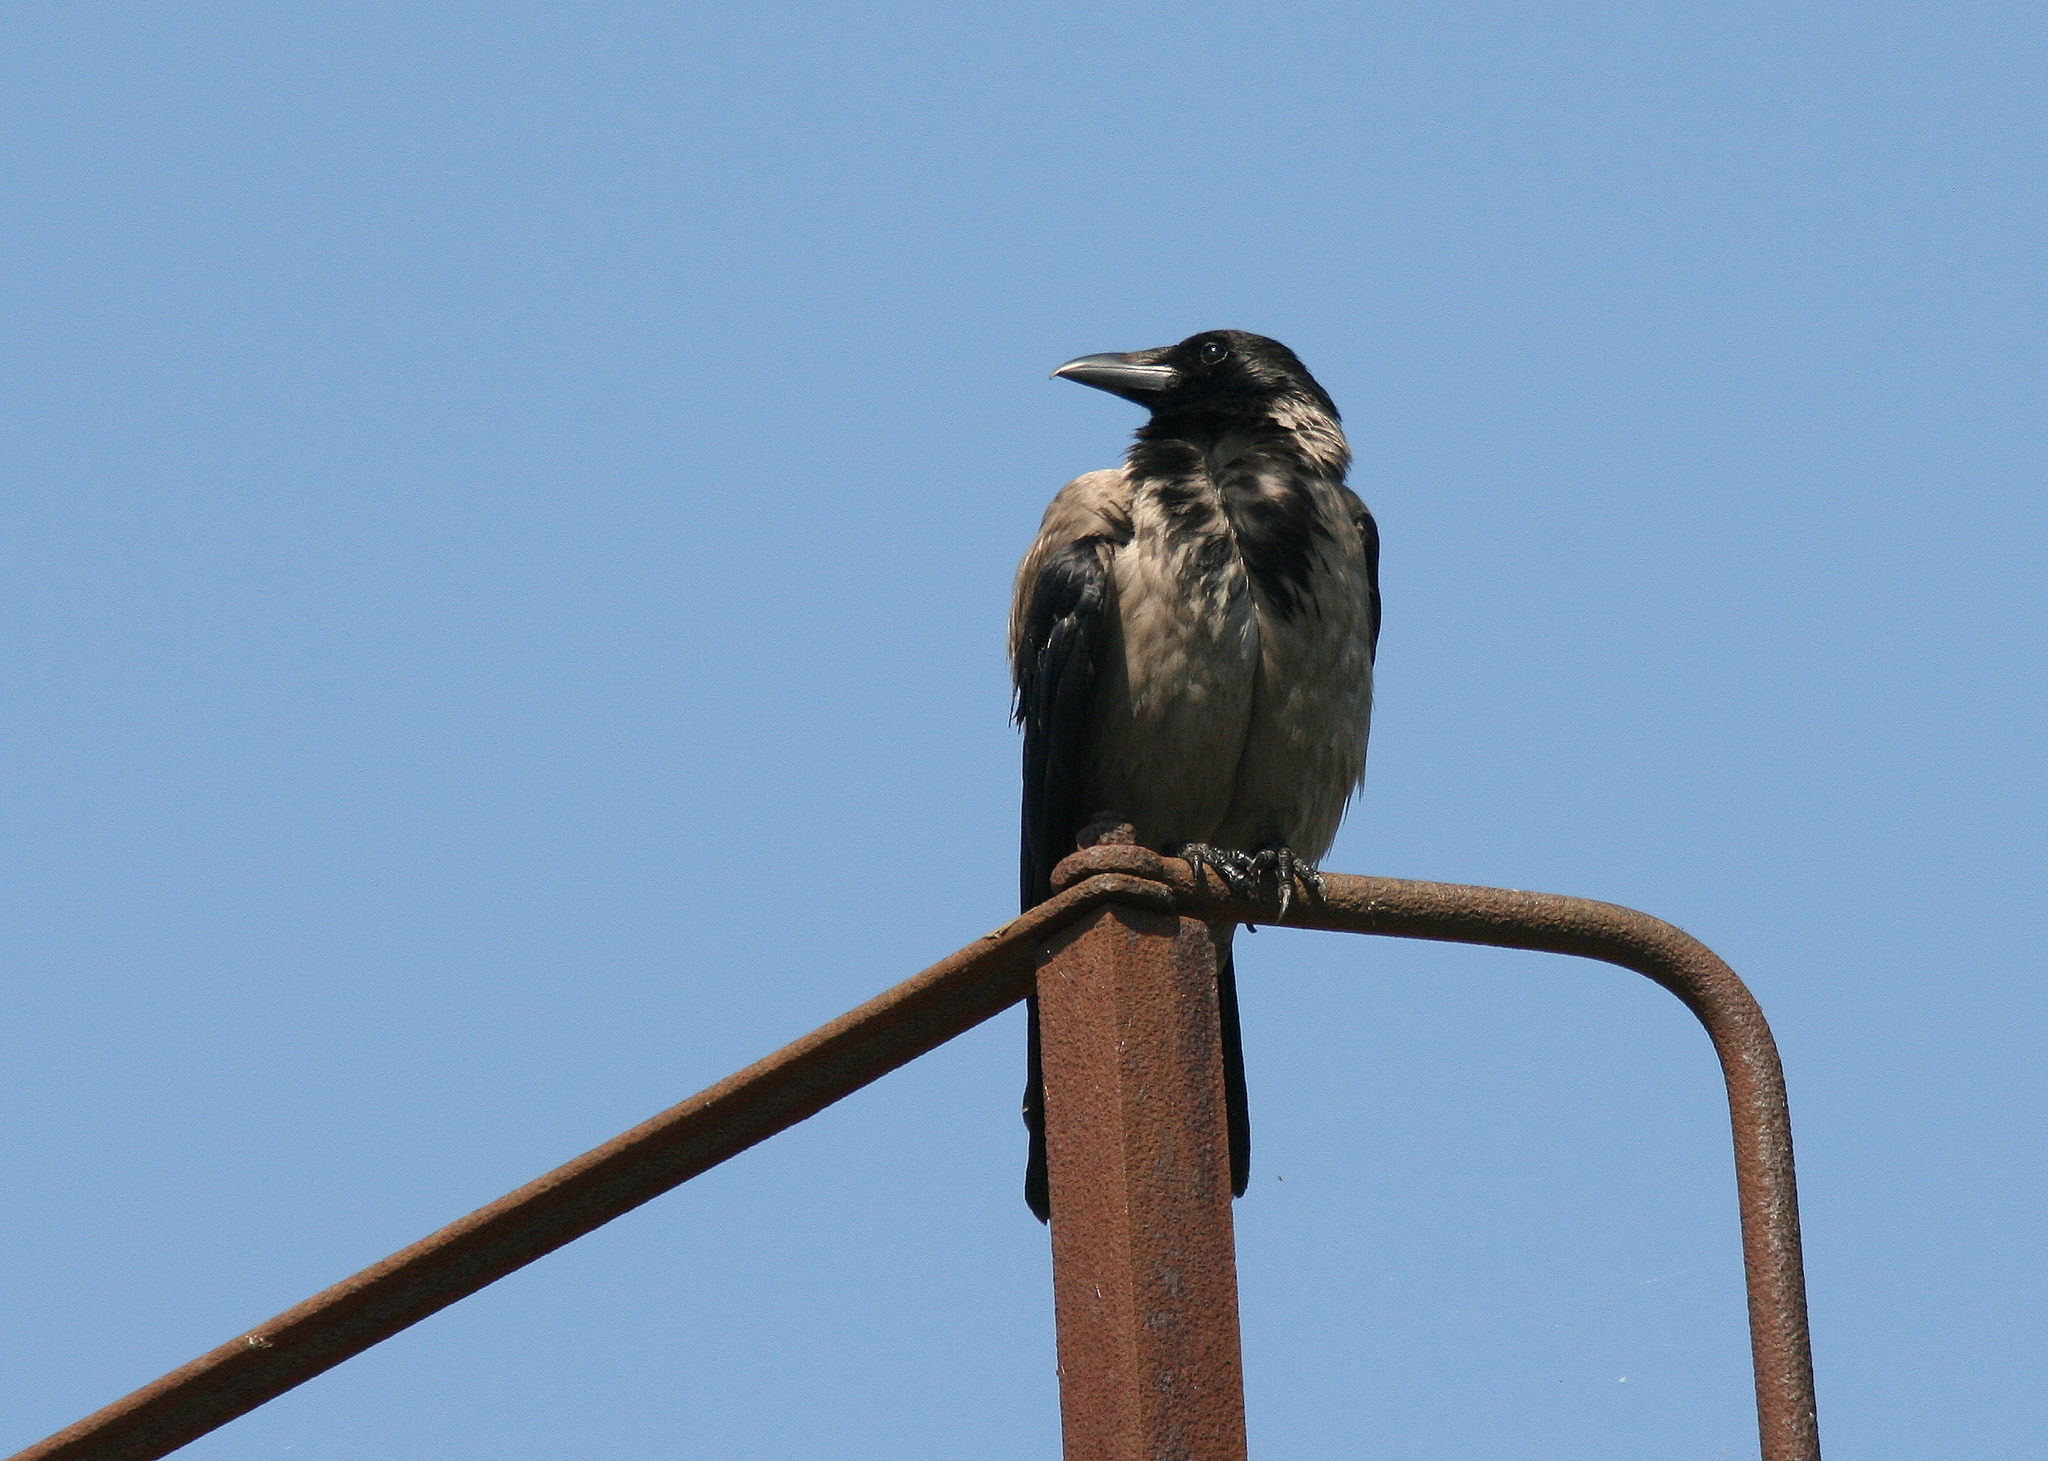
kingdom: Animalia
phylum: Chordata
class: Aves
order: Passeriformes
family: Corvidae
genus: Corvus
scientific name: Corvus cornix
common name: Hooded crow
